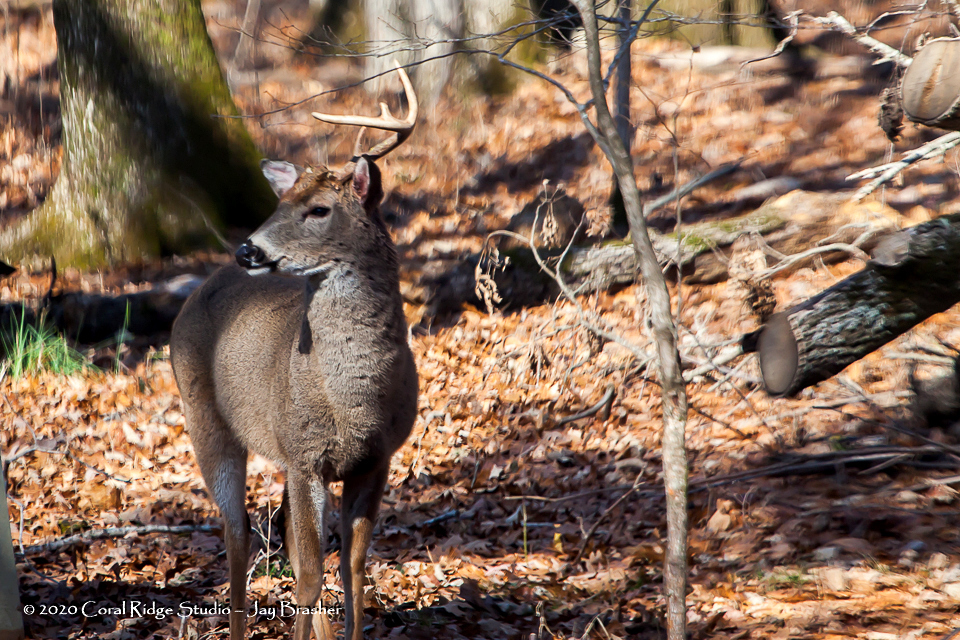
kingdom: Animalia
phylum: Chordata
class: Mammalia
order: Artiodactyla
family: Cervidae
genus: Odocoileus
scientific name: Odocoileus virginianus
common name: White-tailed deer
